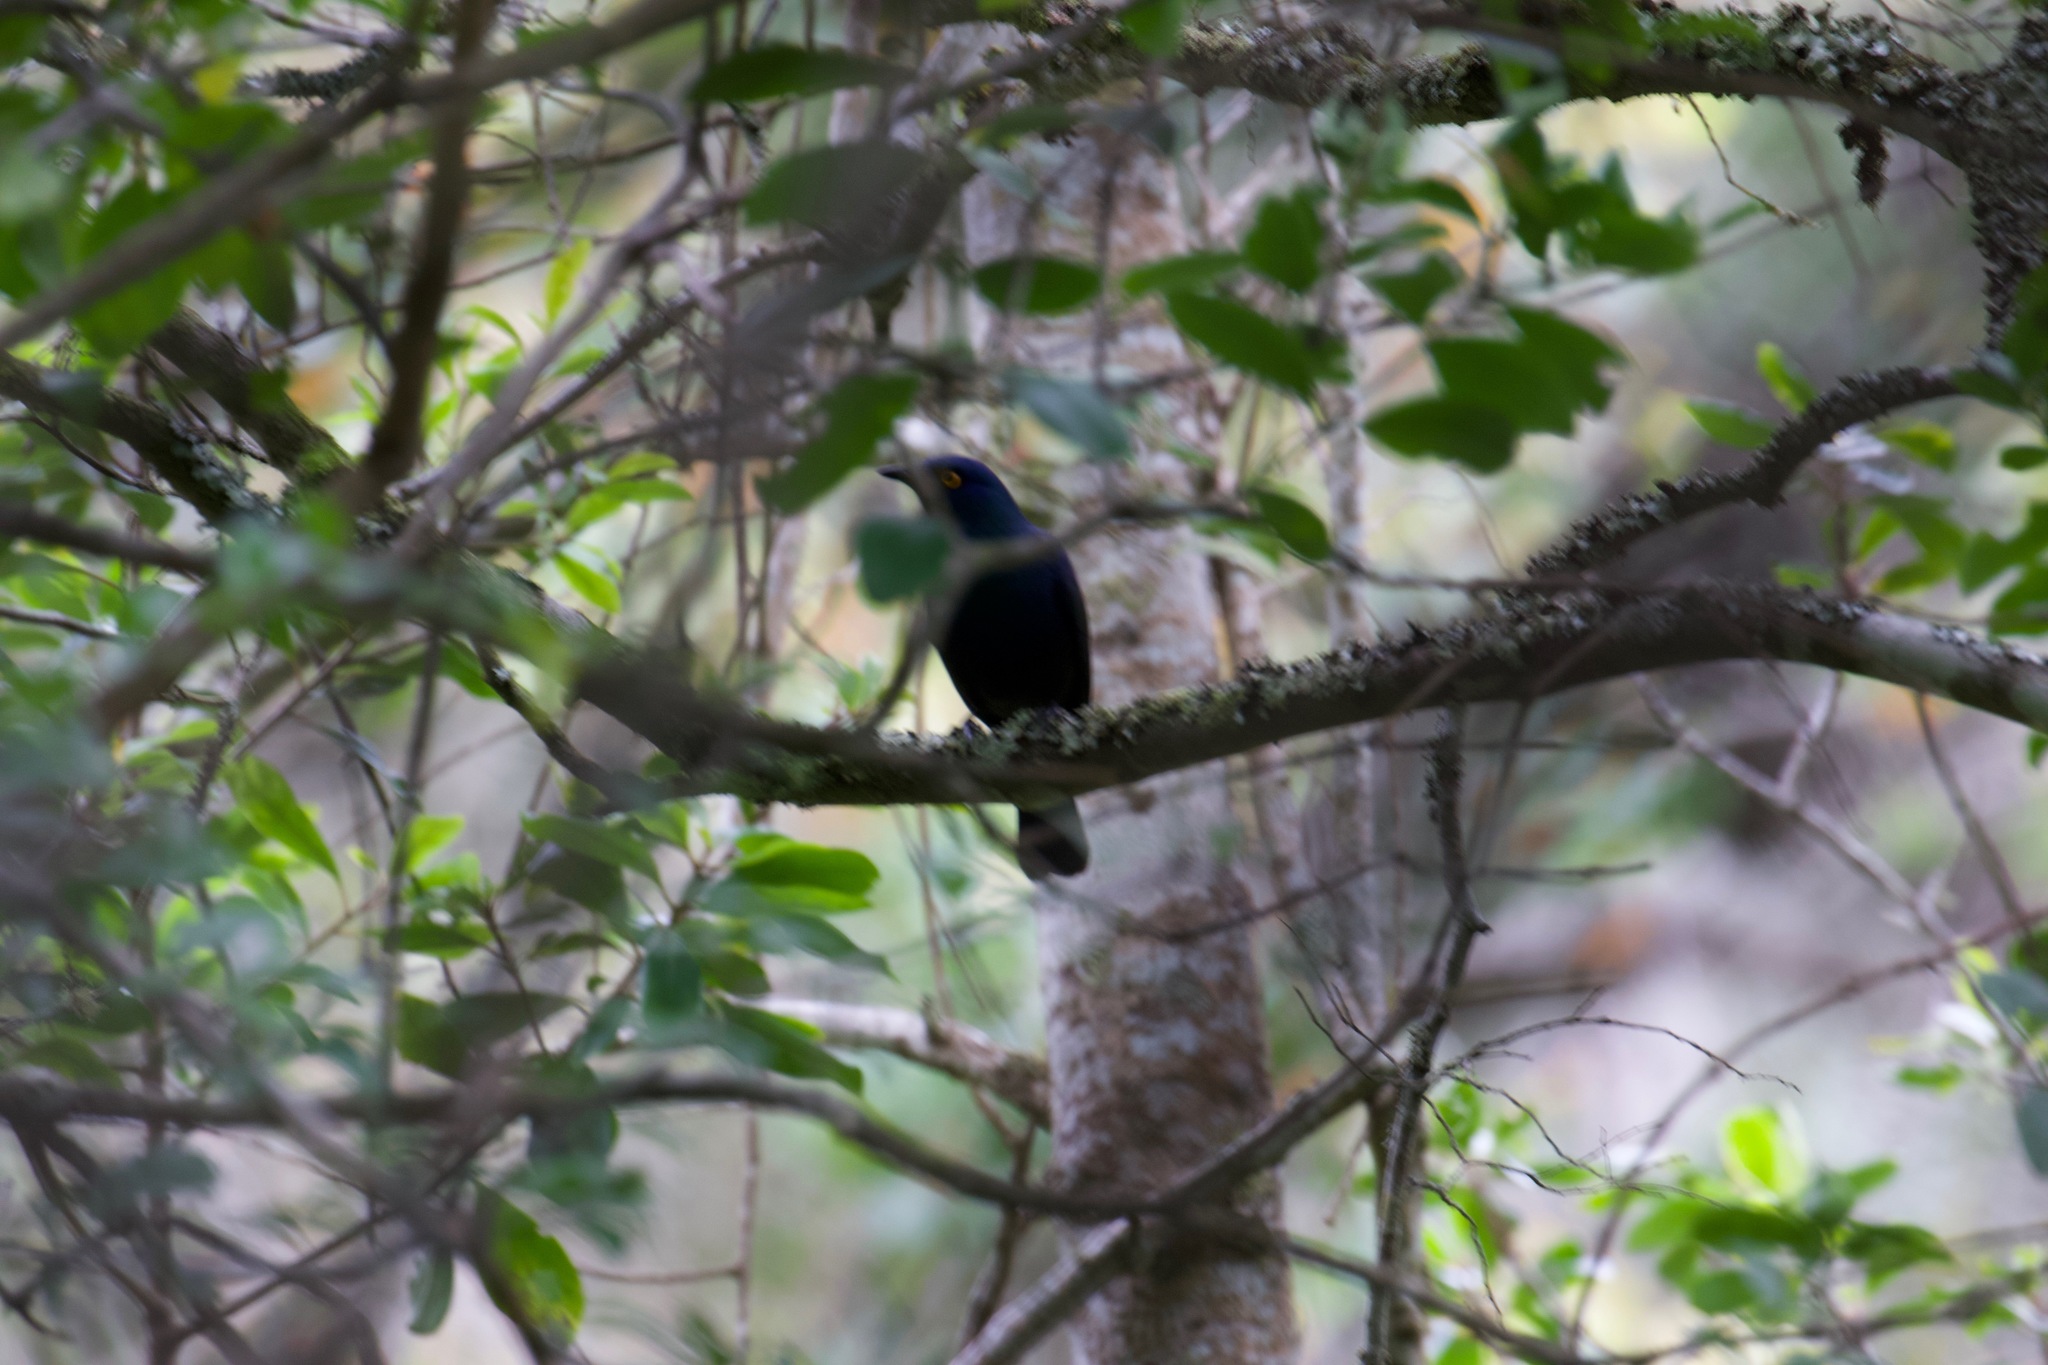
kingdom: Animalia
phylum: Chordata
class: Aves
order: Passeriformes
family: Sturnidae
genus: Notopholia
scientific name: Notopholia corrusca
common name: Black-bellied starling
